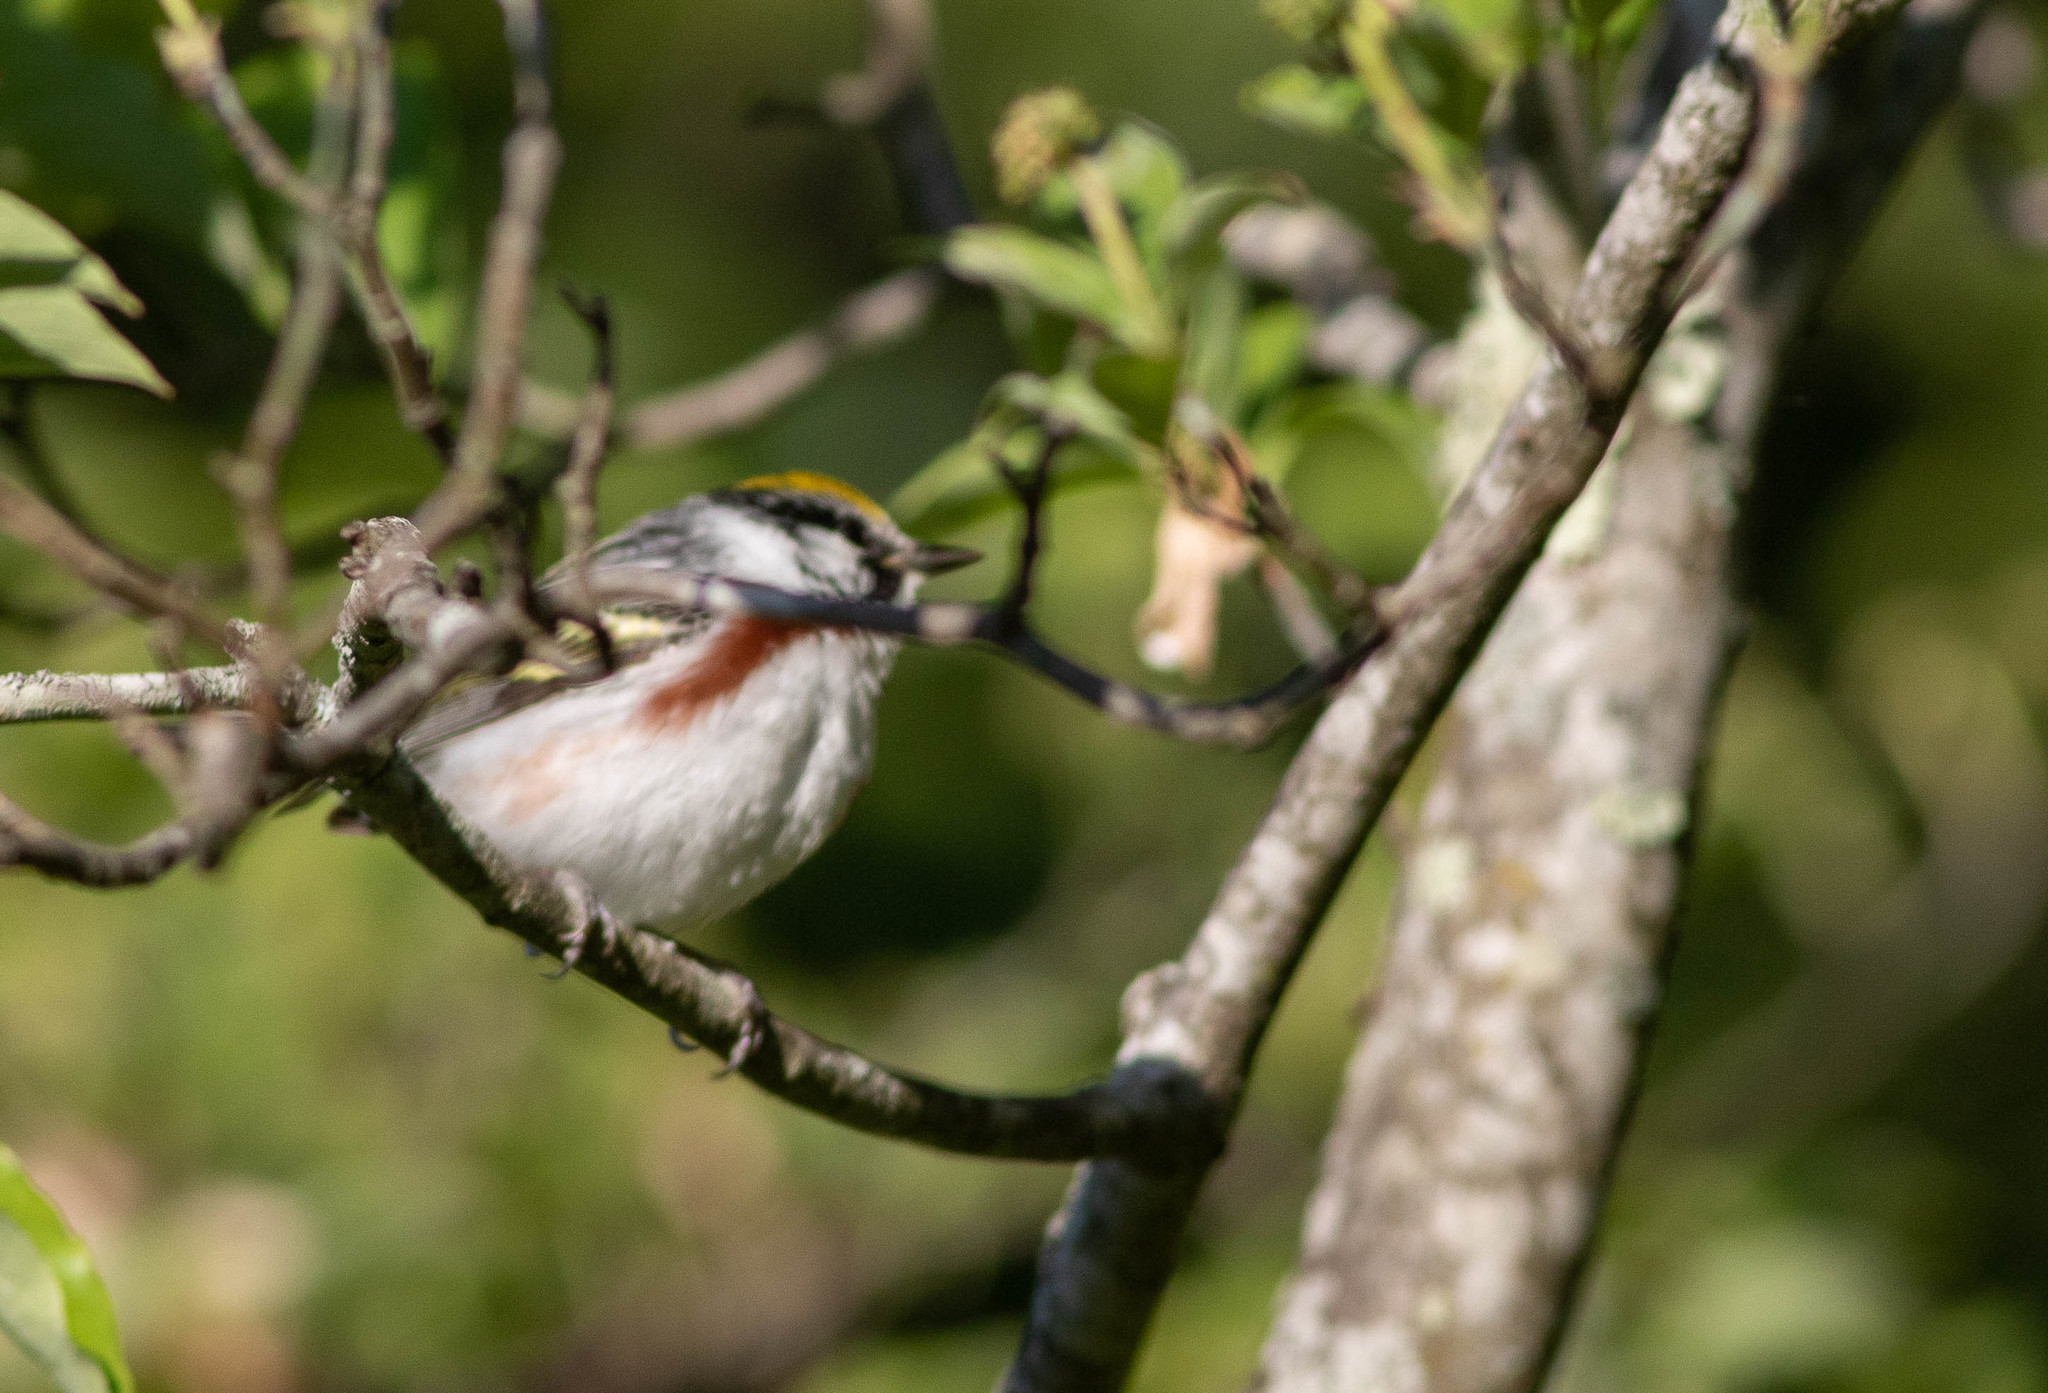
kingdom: Animalia
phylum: Chordata
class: Aves
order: Passeriformes
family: Parulidae
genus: Setophaga
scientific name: Setophaga pensylvanica
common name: Chestnut-sided warbler
